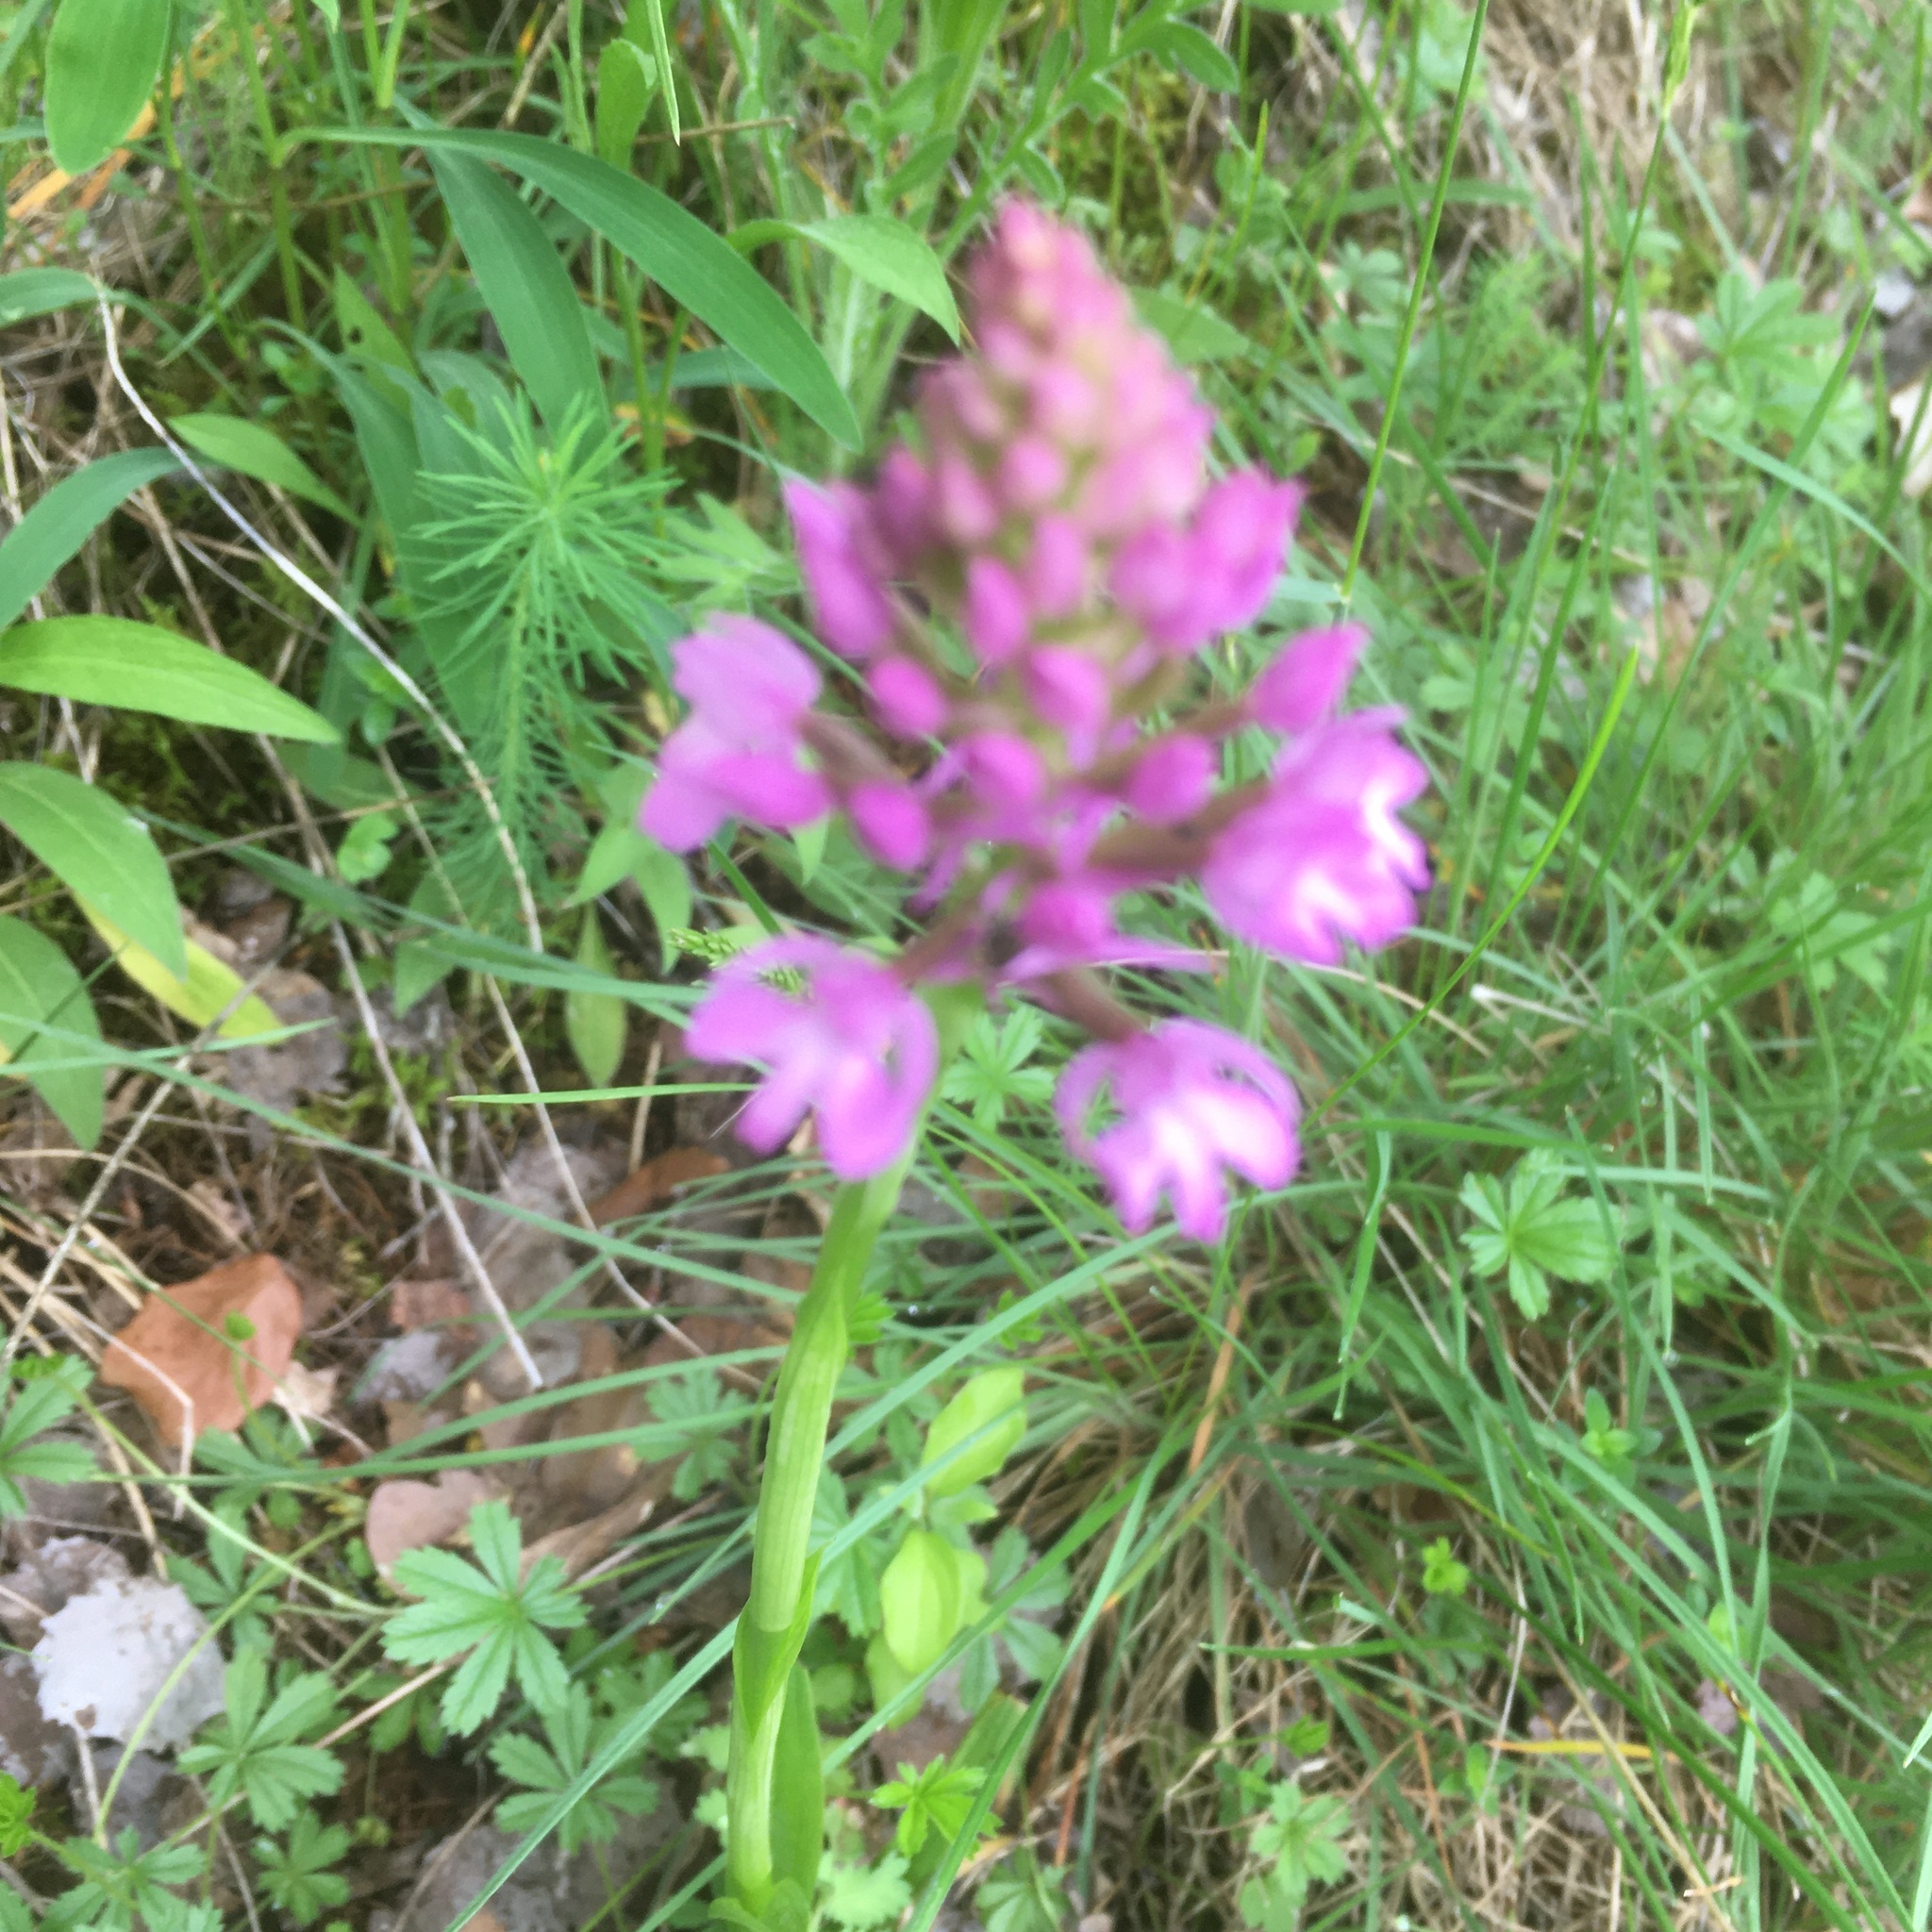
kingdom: Plantae
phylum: Tracheophyta
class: Liliopsida
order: Asparagales
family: Orchidaceae
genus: Anacamptis
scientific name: Anacamptis pyramidalis
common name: Pyramidal orchid
